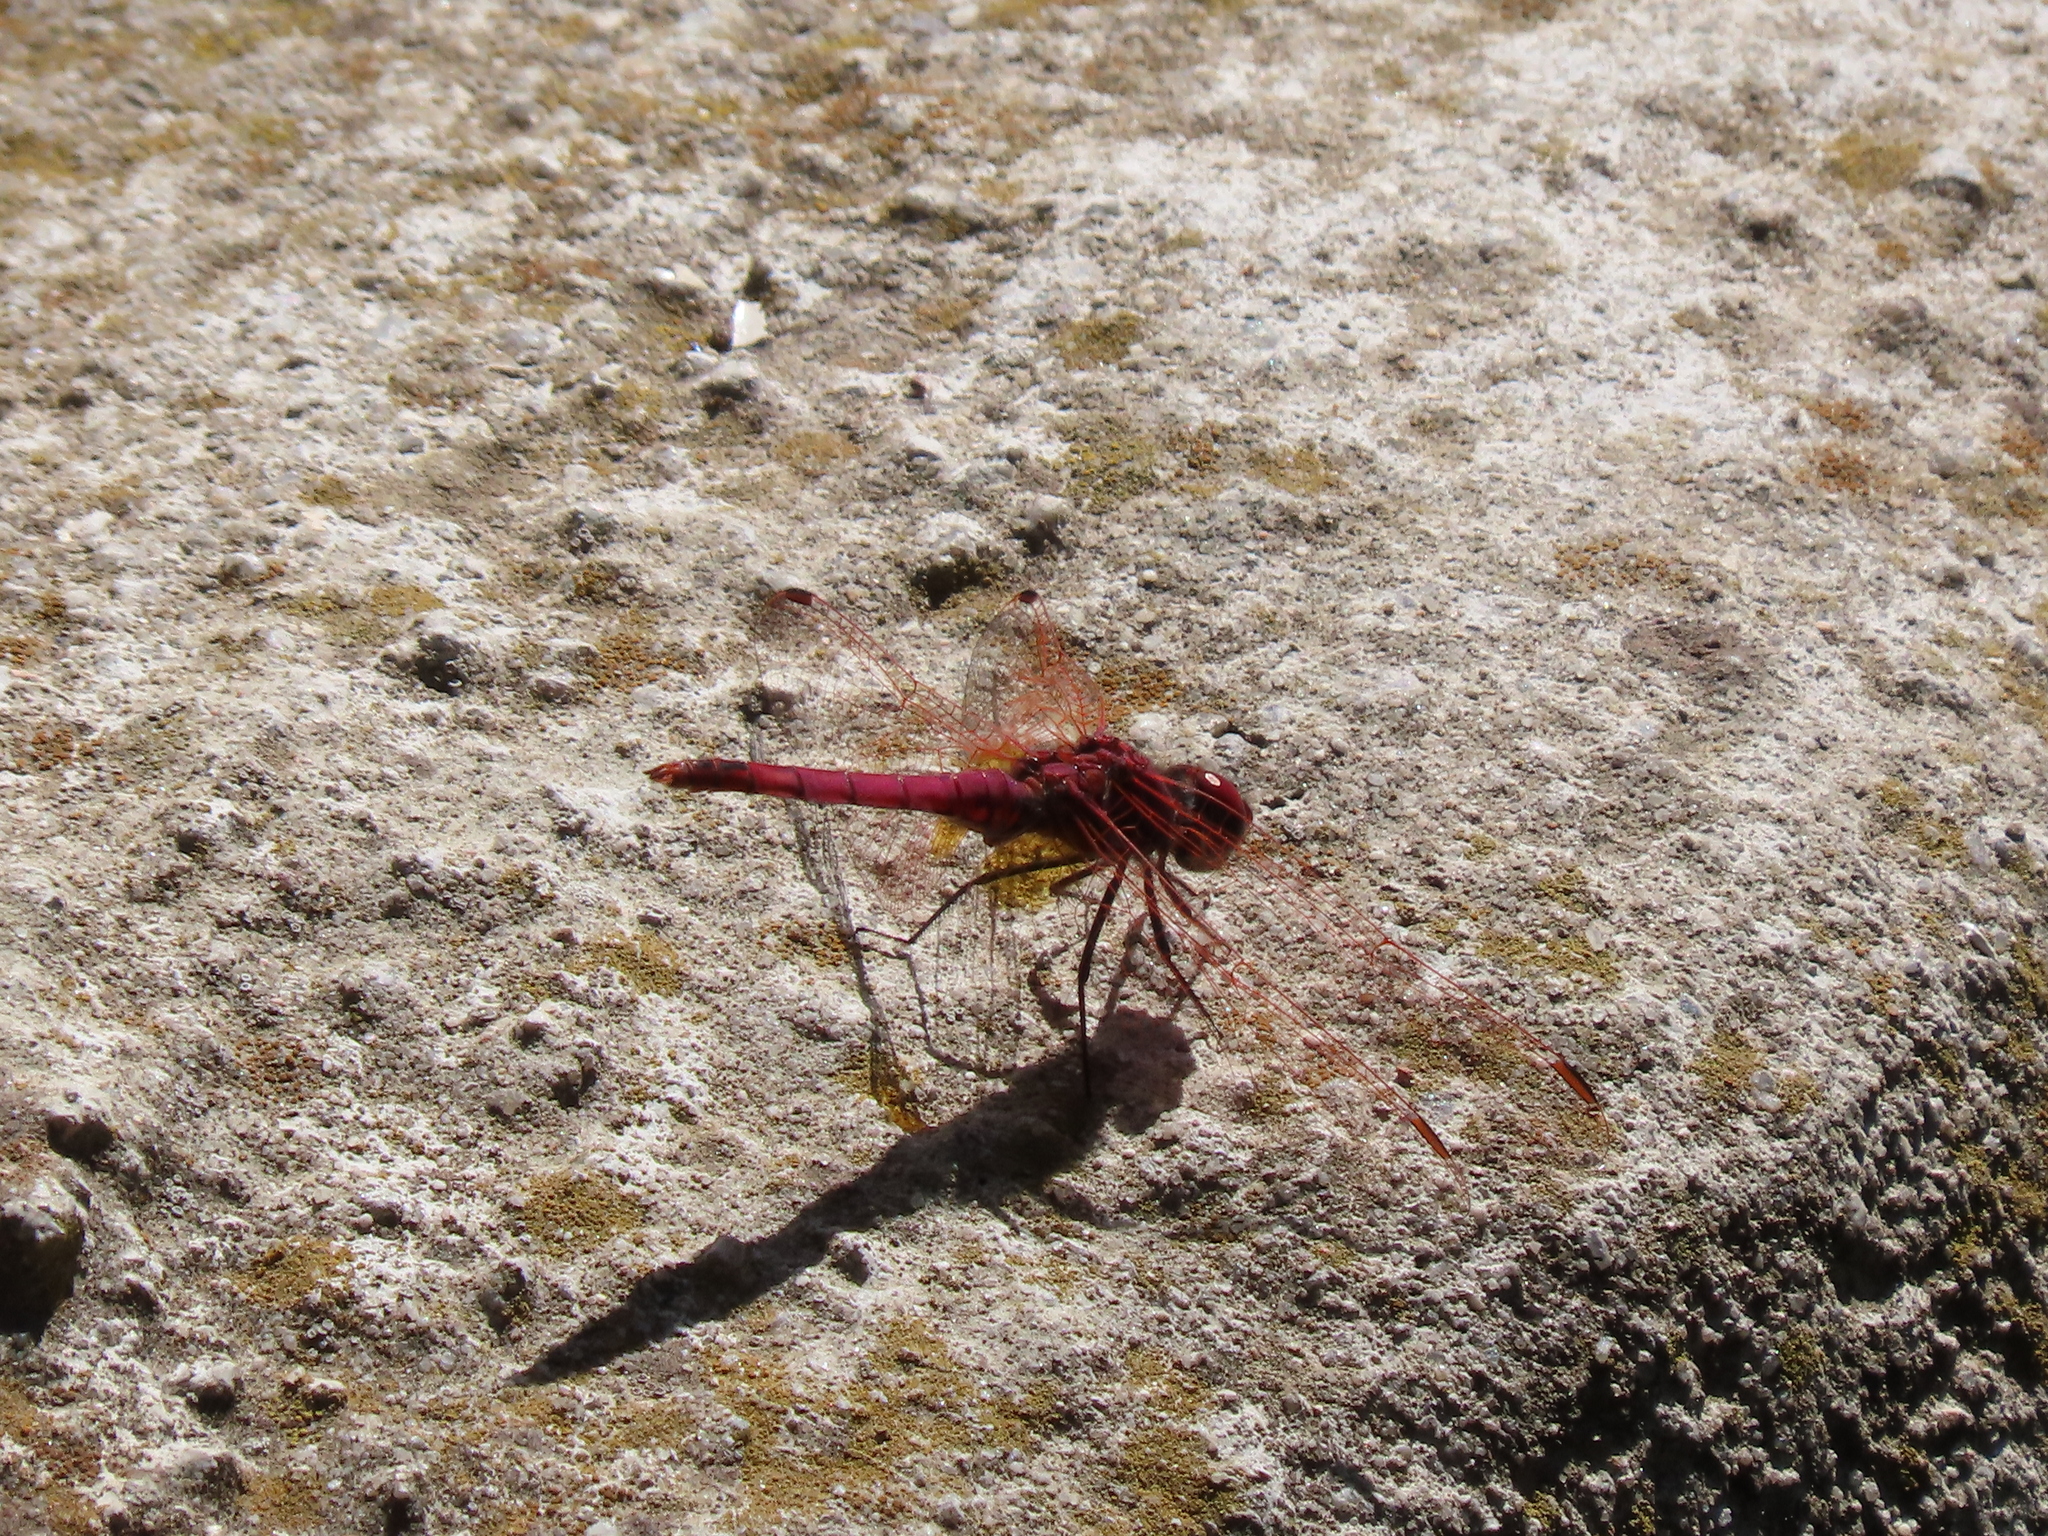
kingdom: Animalia
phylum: Arthropoda
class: Insecta
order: Odonata
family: Libellulidae
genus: Trithemis
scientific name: Trithemis annulata
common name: Violet dropwing
